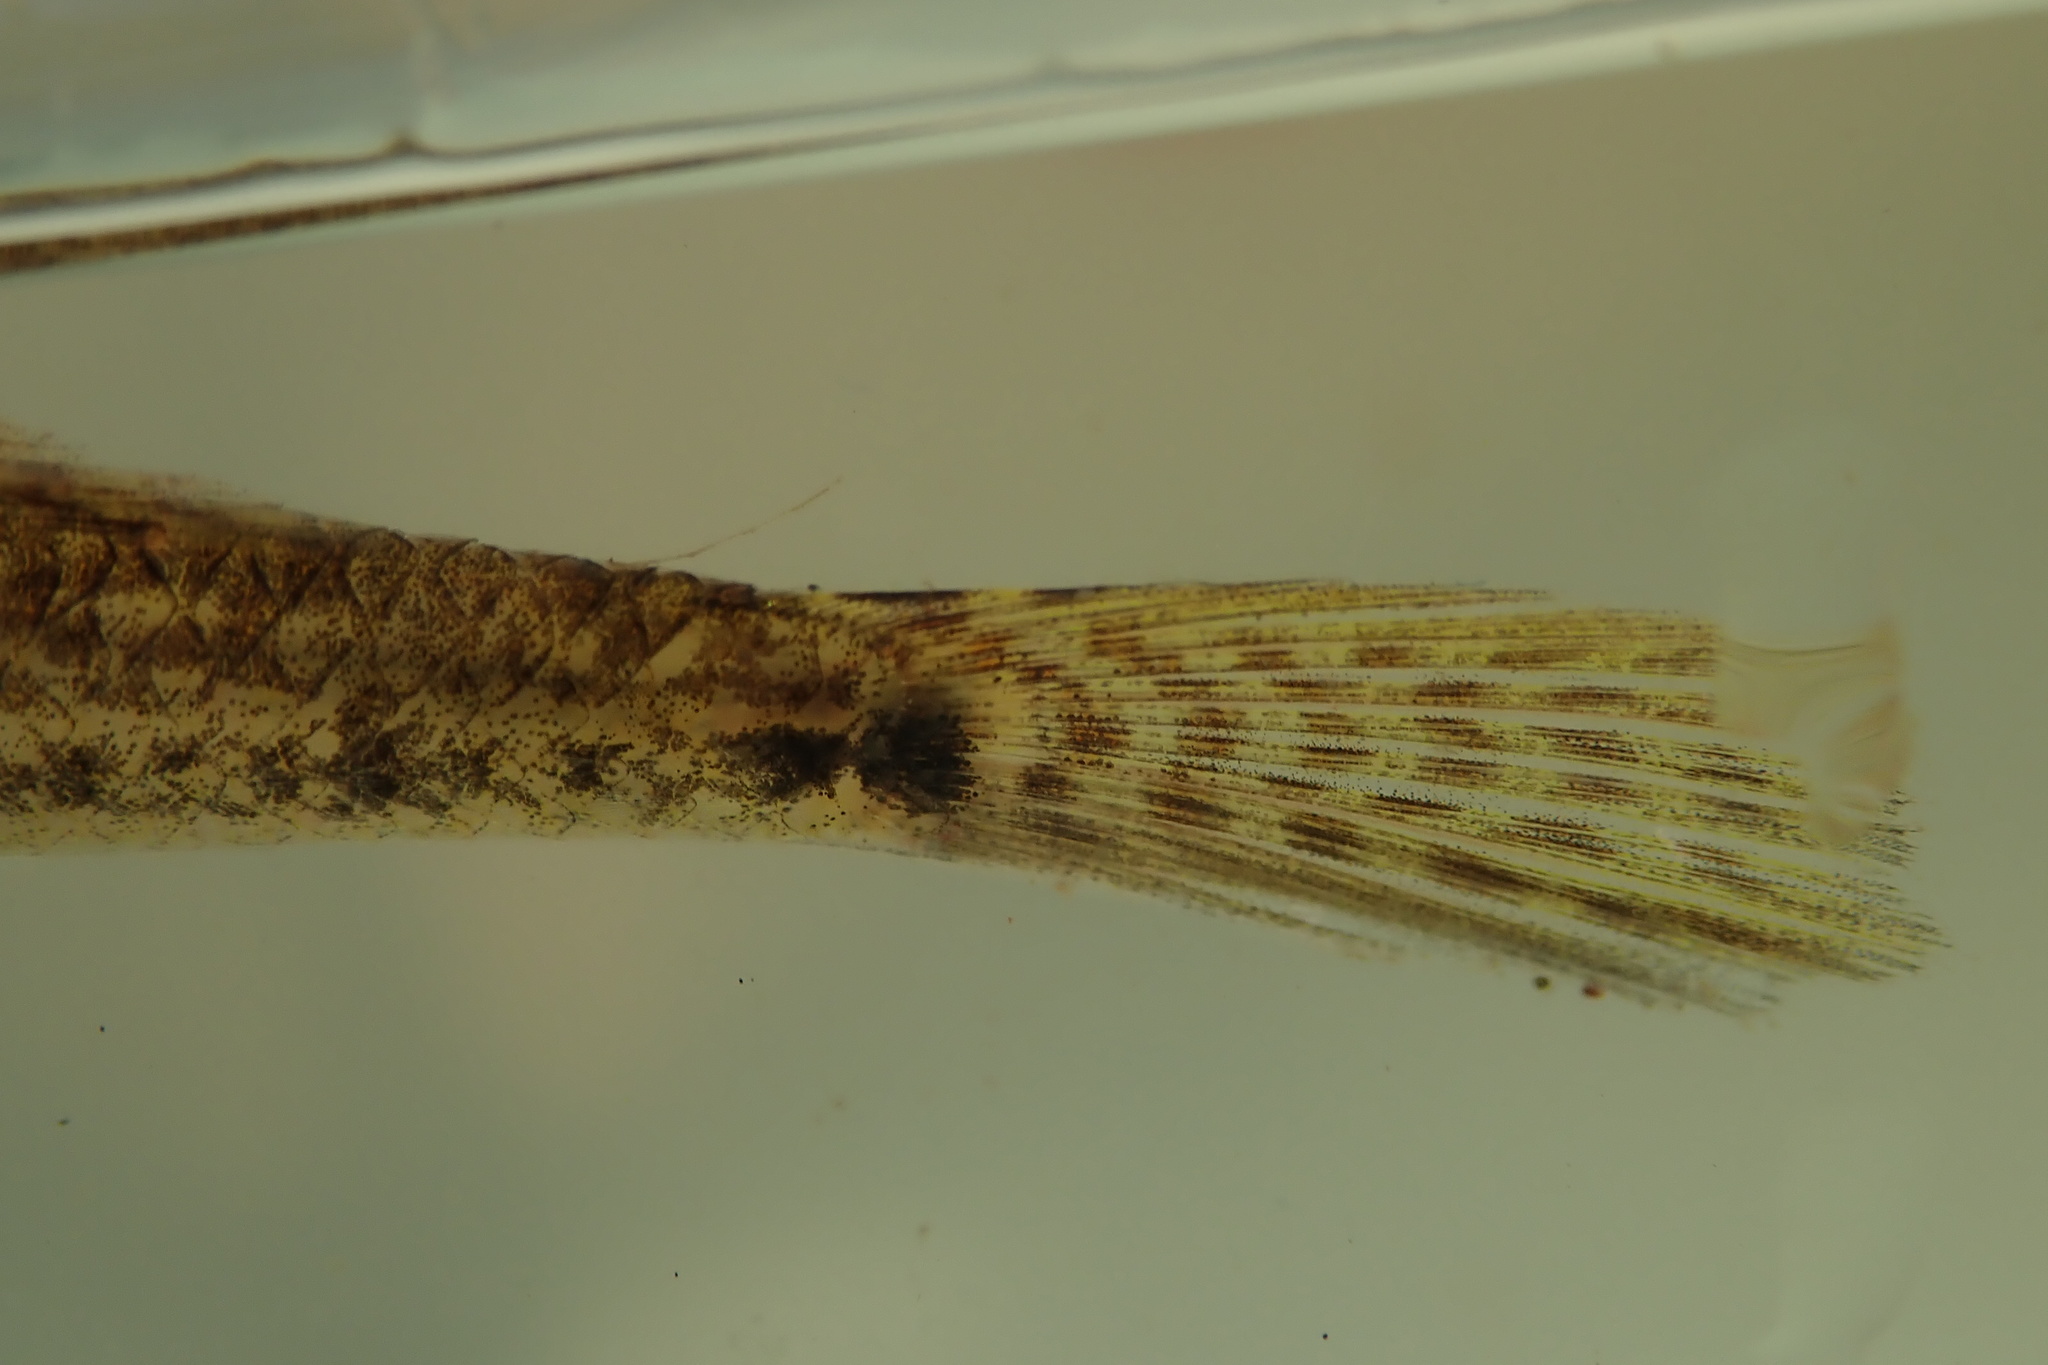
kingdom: Animalia
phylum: Chordata
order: Perciformes
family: Gobiidae
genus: Glossogobius
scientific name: Glossogobius callidus
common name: River goby
